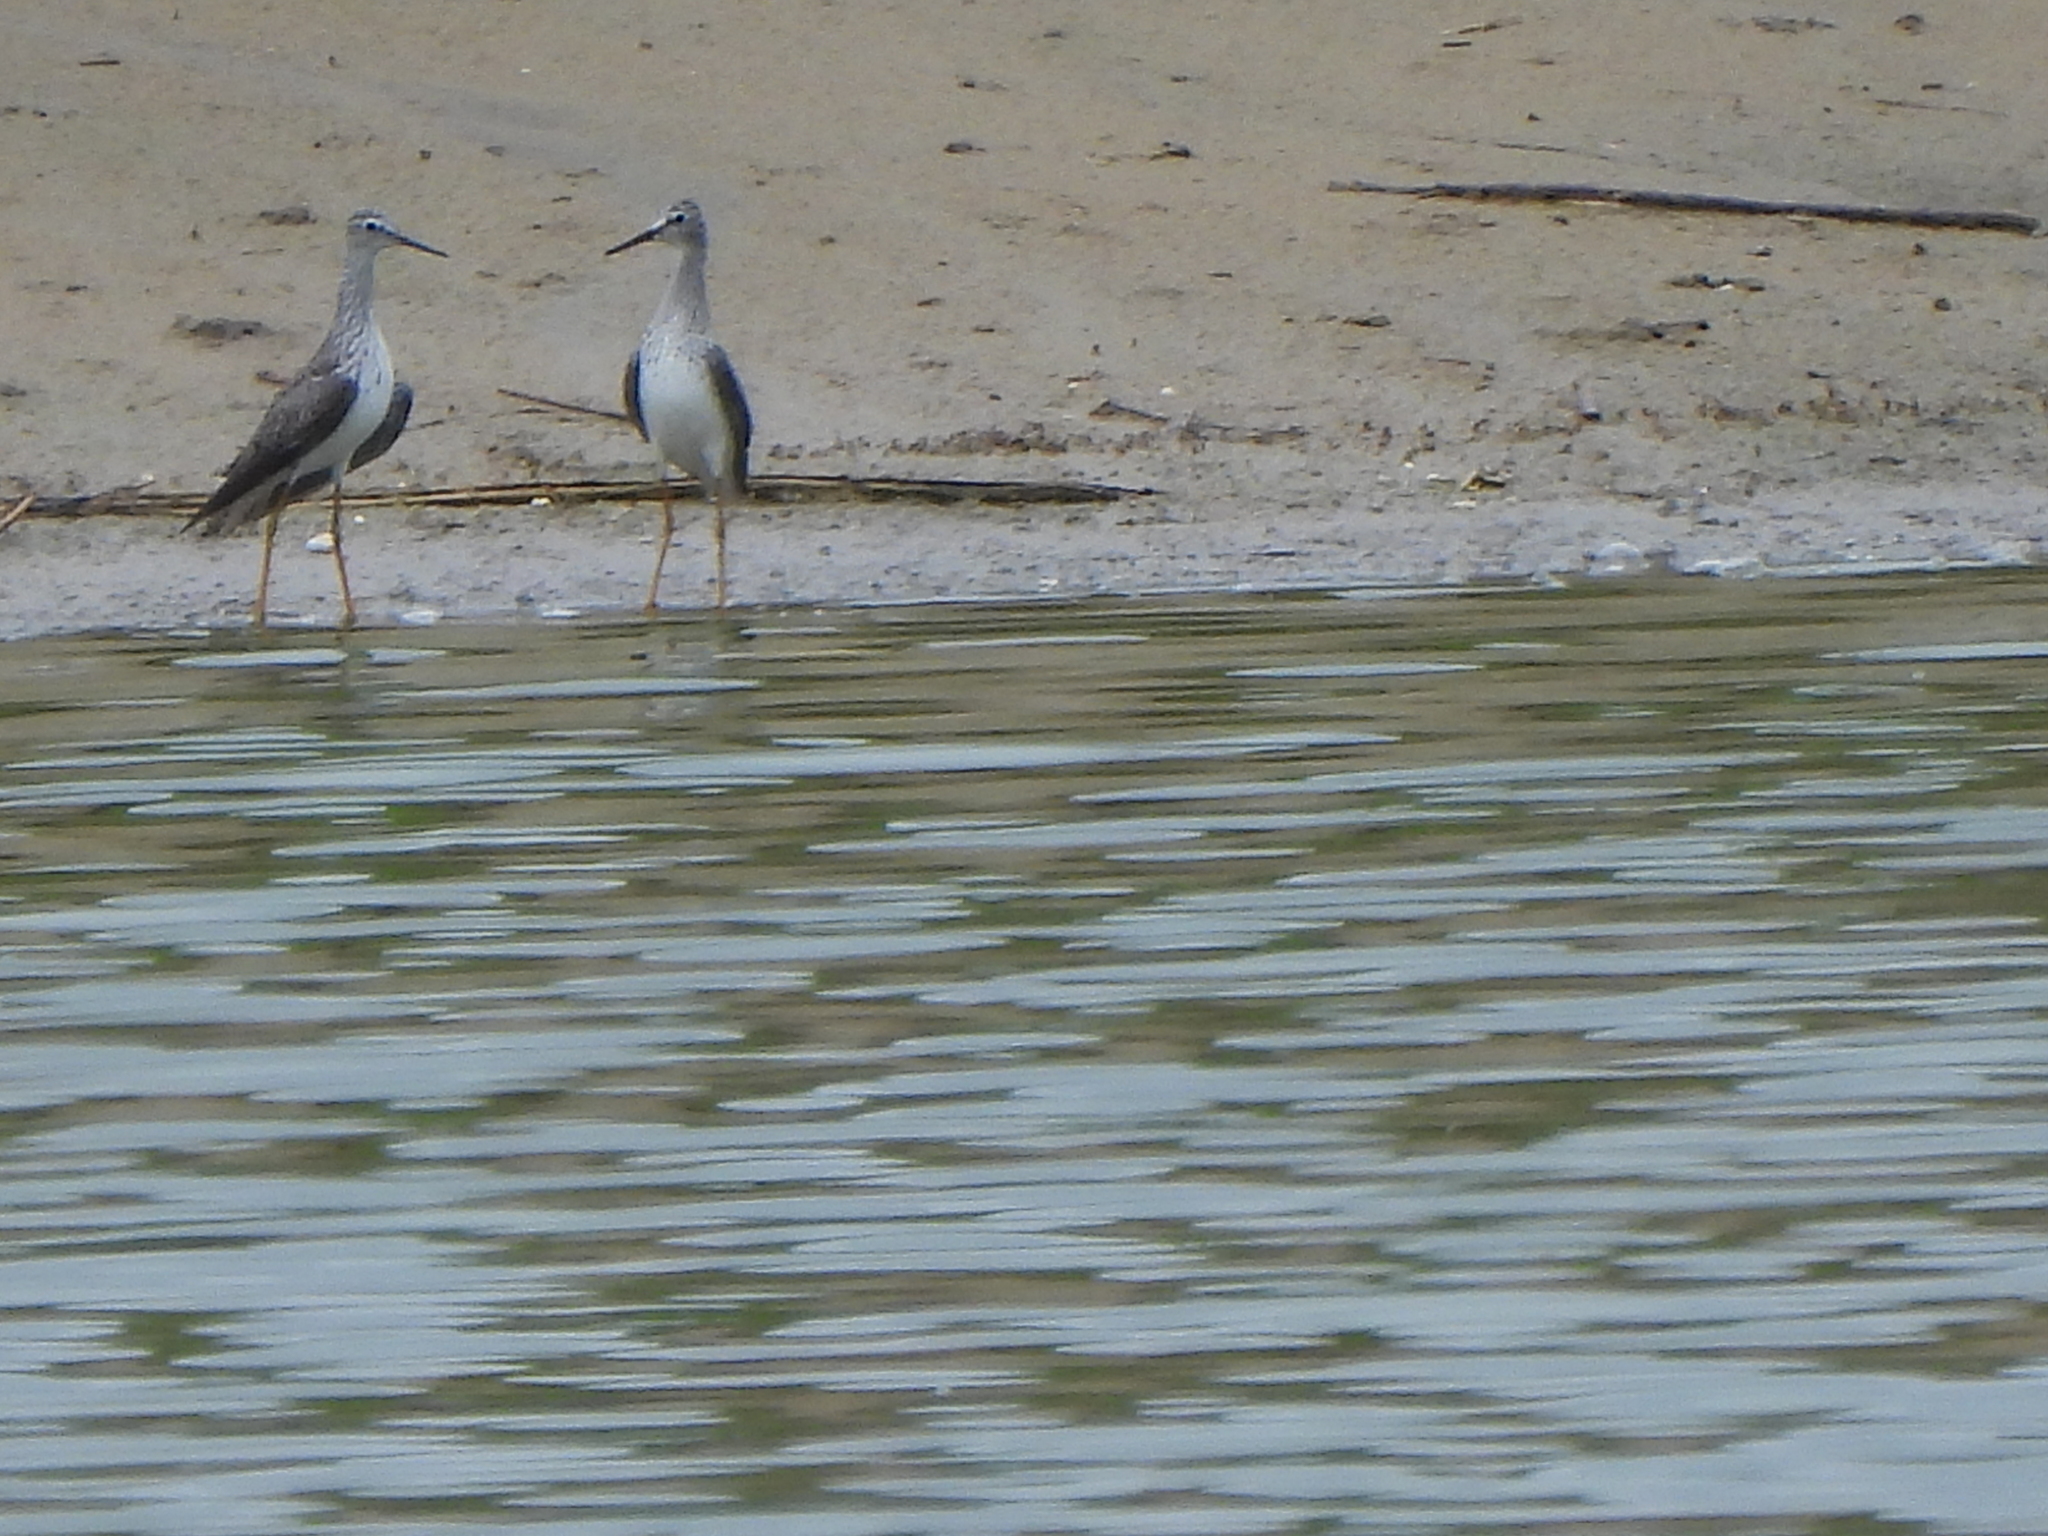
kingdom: Animalia
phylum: Chordata
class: Aves
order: Charadriiformes
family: Scolopacidae
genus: Tringa
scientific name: Tringa flavipes
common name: Lesser yellowlegs
